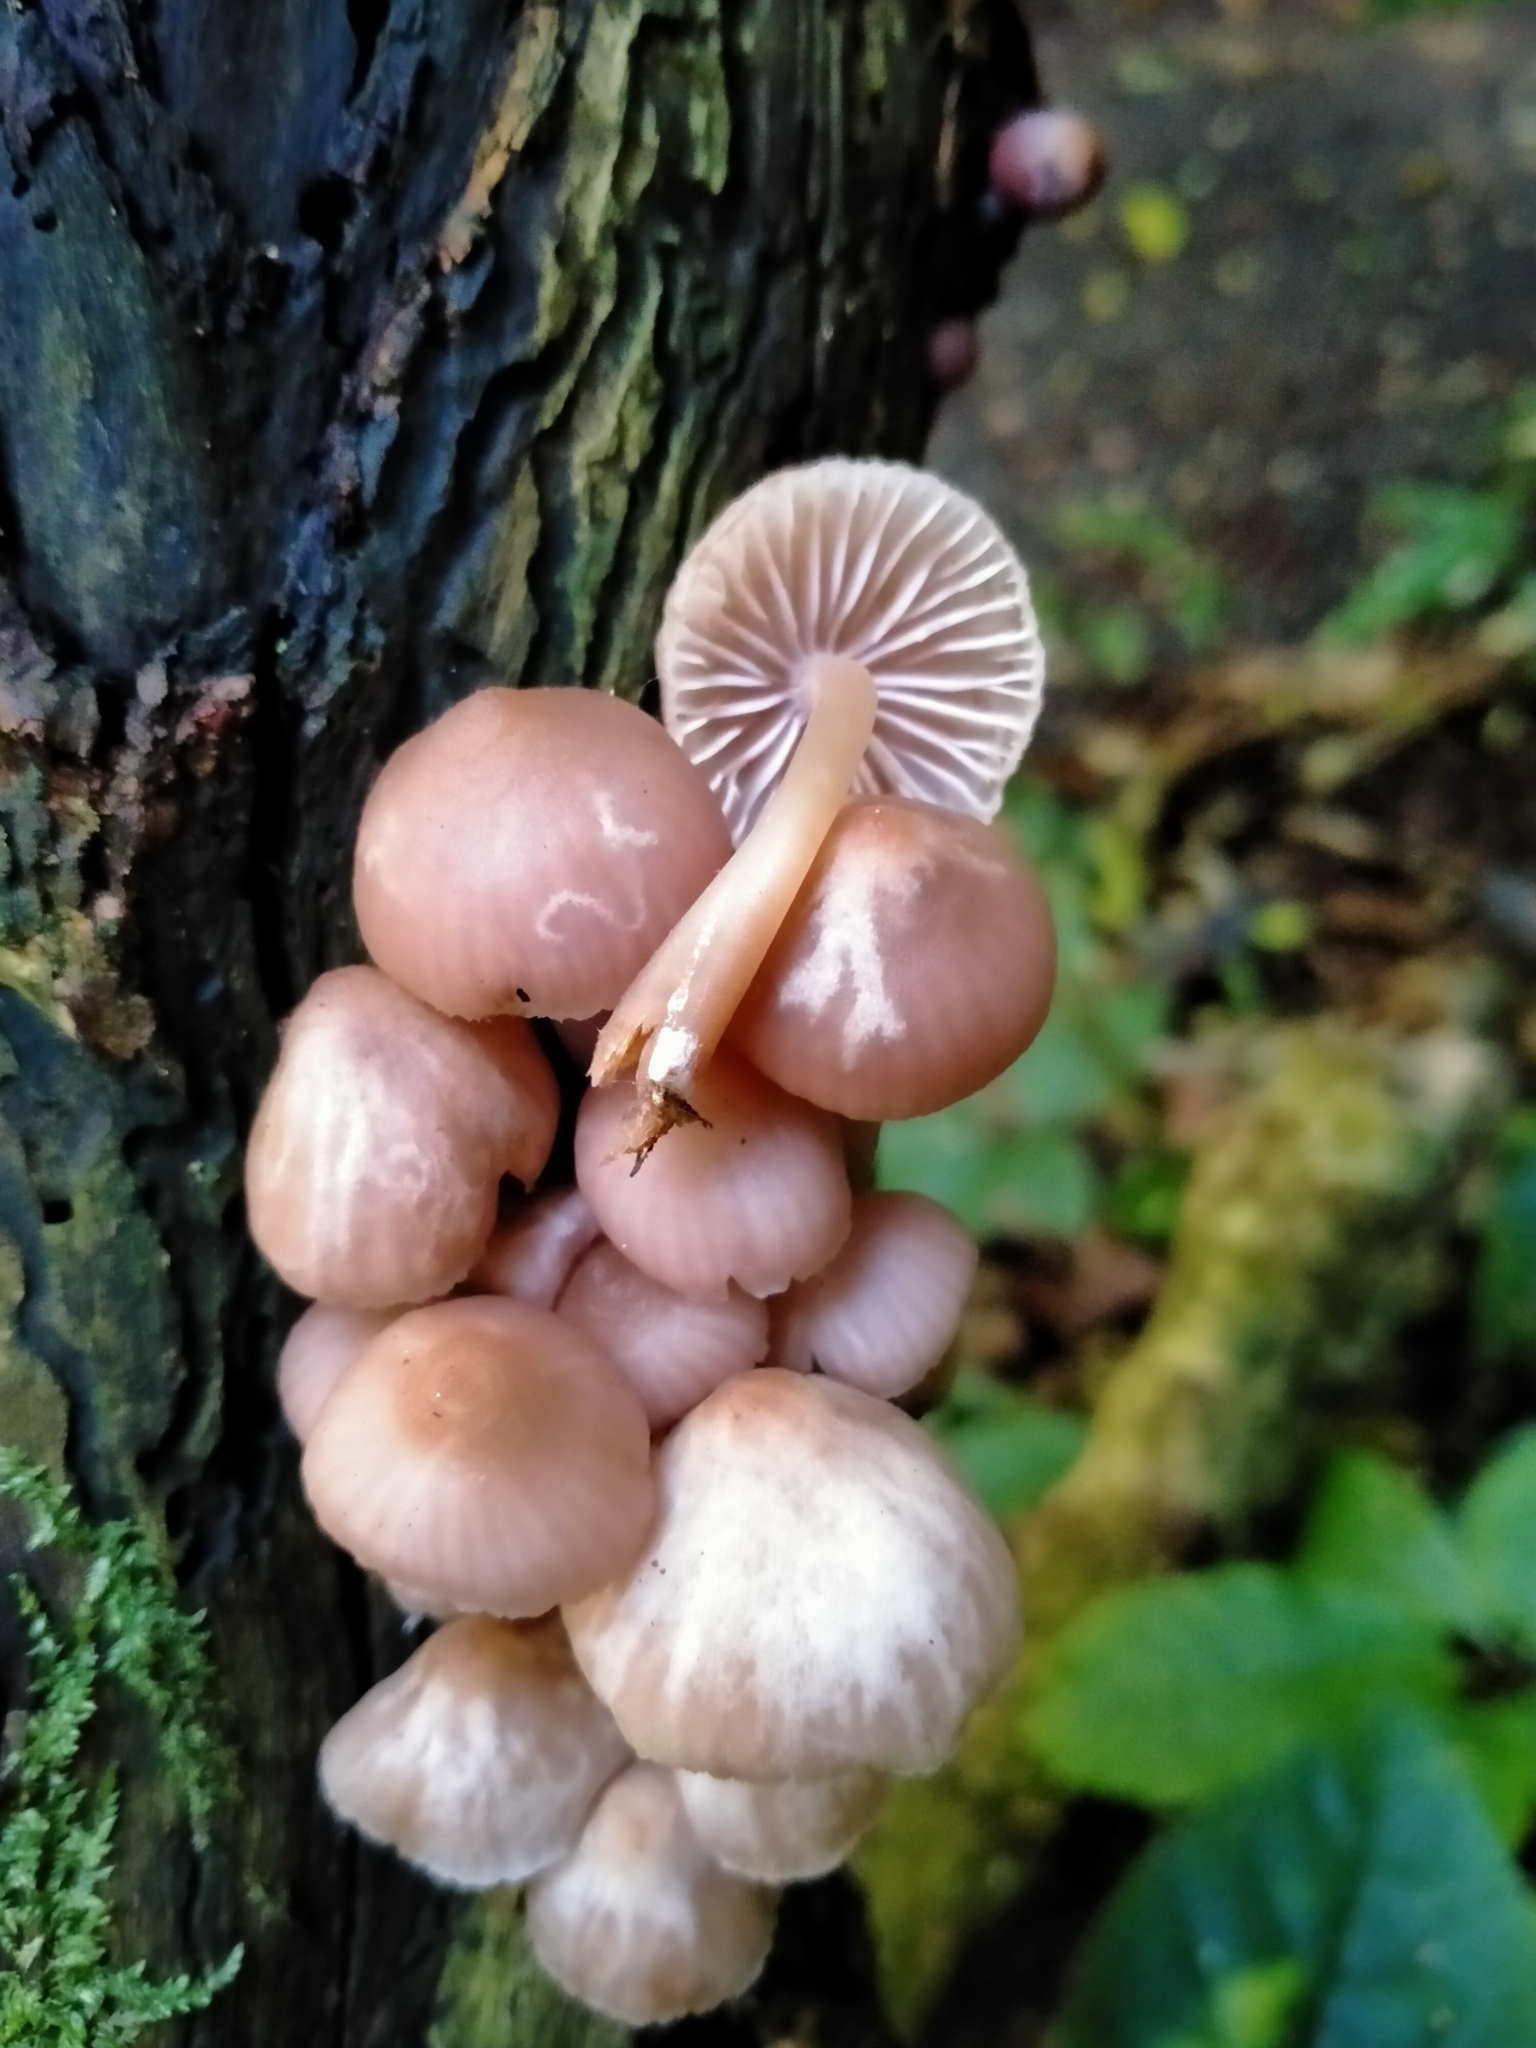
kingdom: Fungi
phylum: Basidiomycota
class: Agaricomycetes
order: Agaricales
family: Mycenaceae
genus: Mycena
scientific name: Mycena clarkeana
